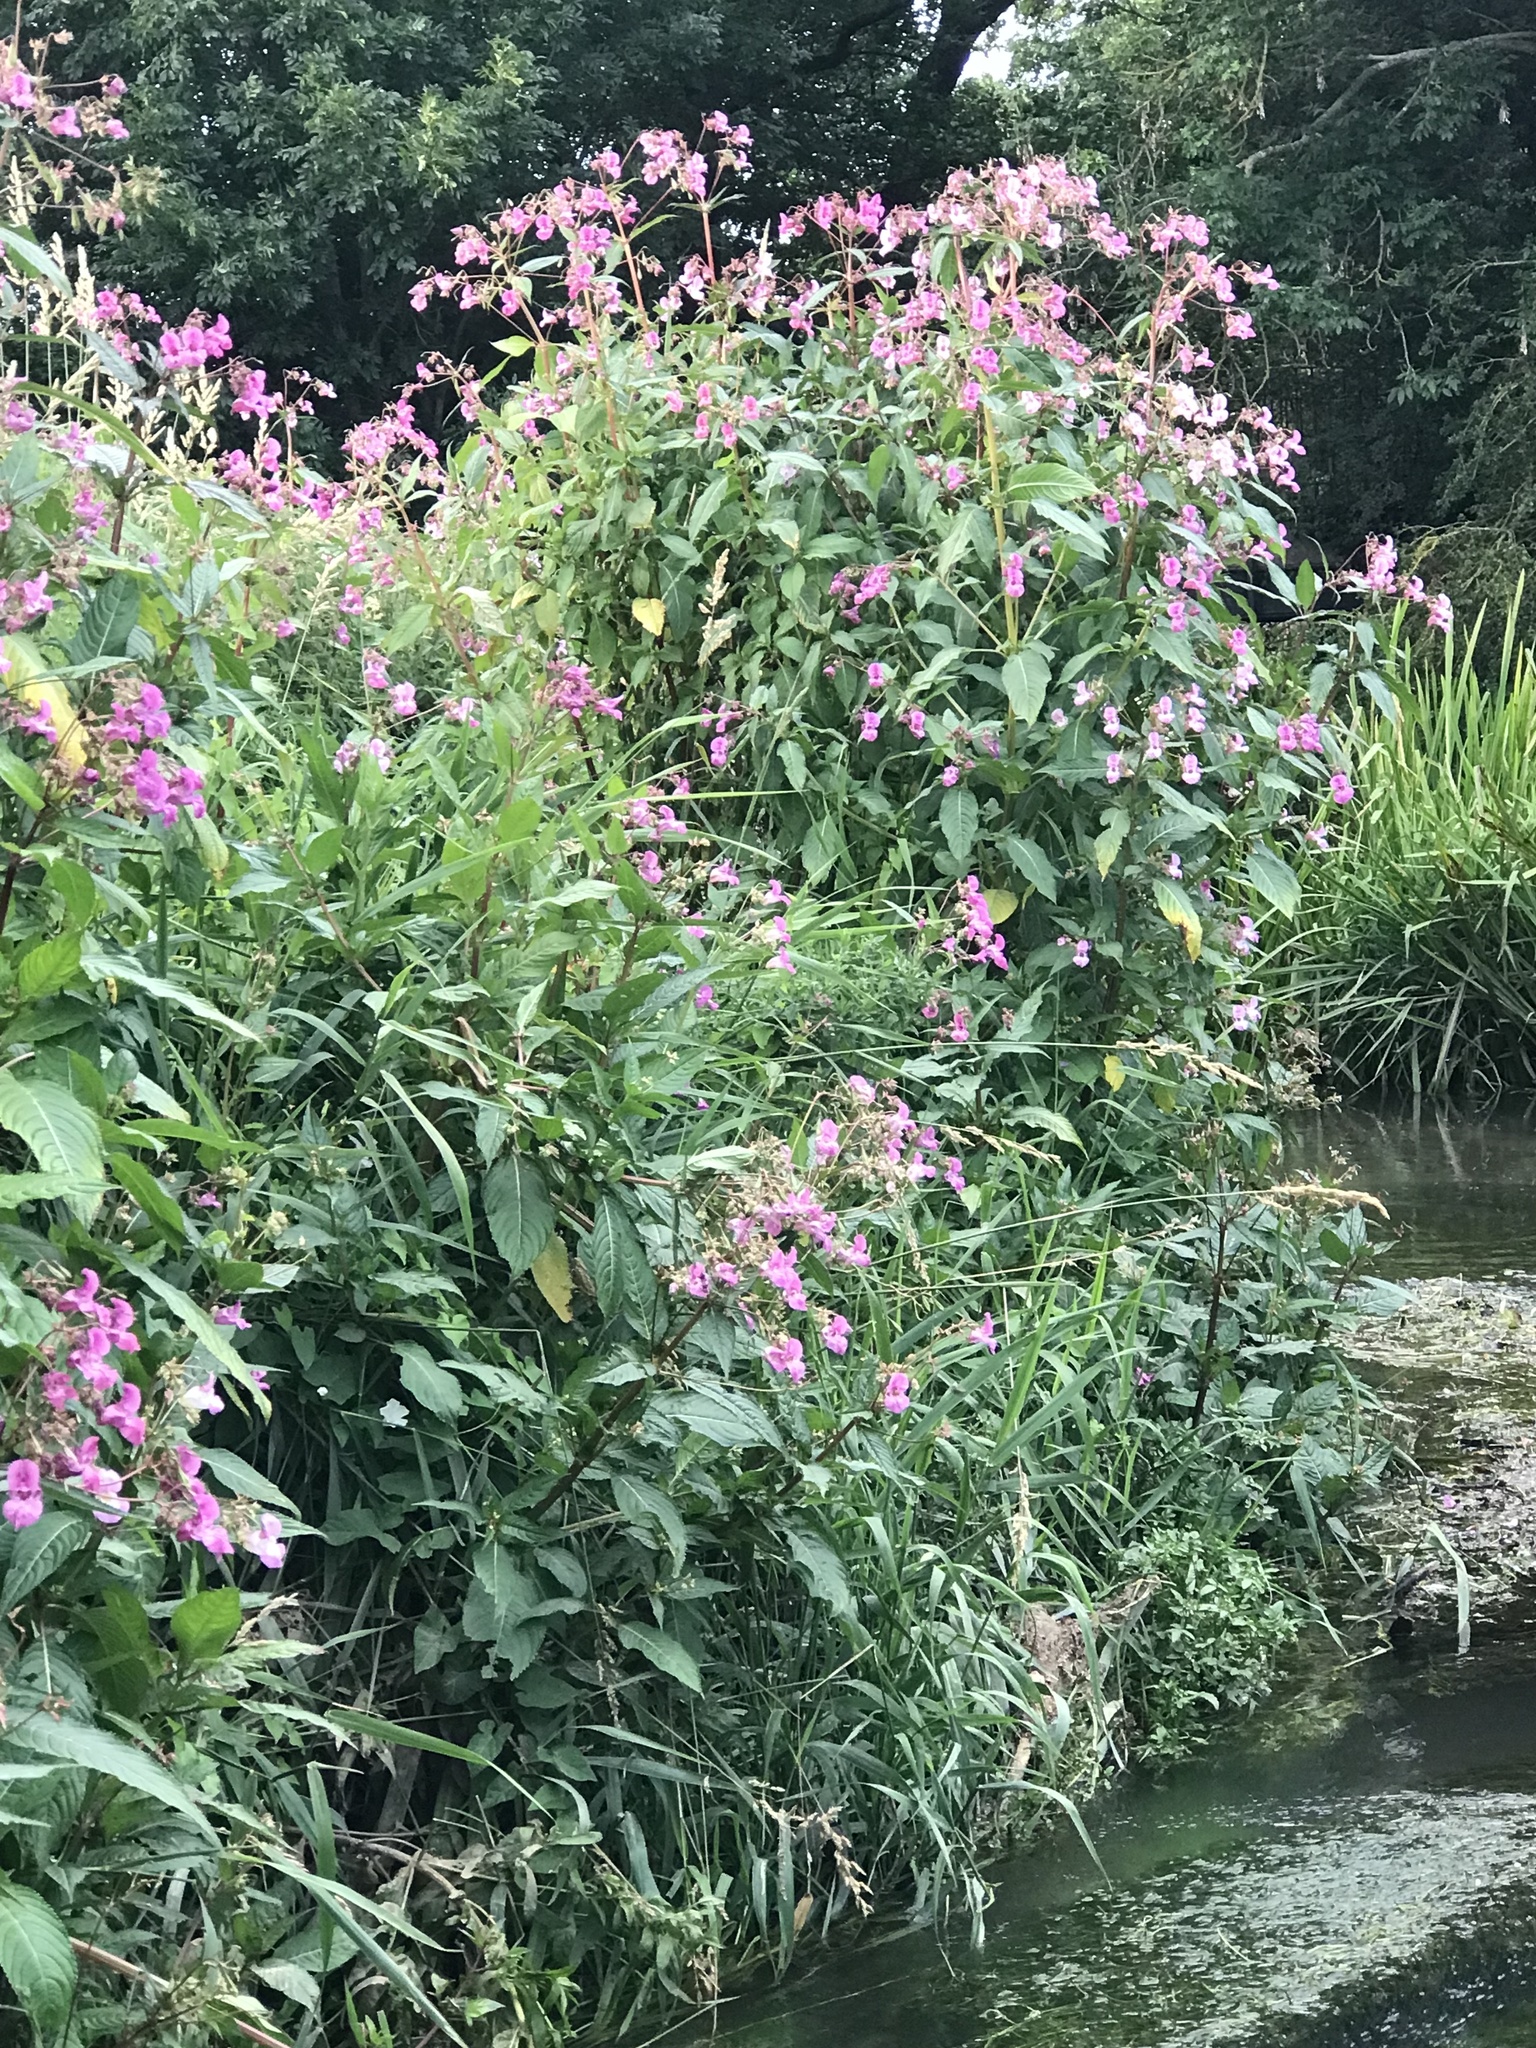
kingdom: Plantae
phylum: Tracheophyta
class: Magnoliopsida
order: Ericales
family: Balsaminaceae
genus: Impatiens
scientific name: Impatiens glandulifera
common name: Himalayan balsam
